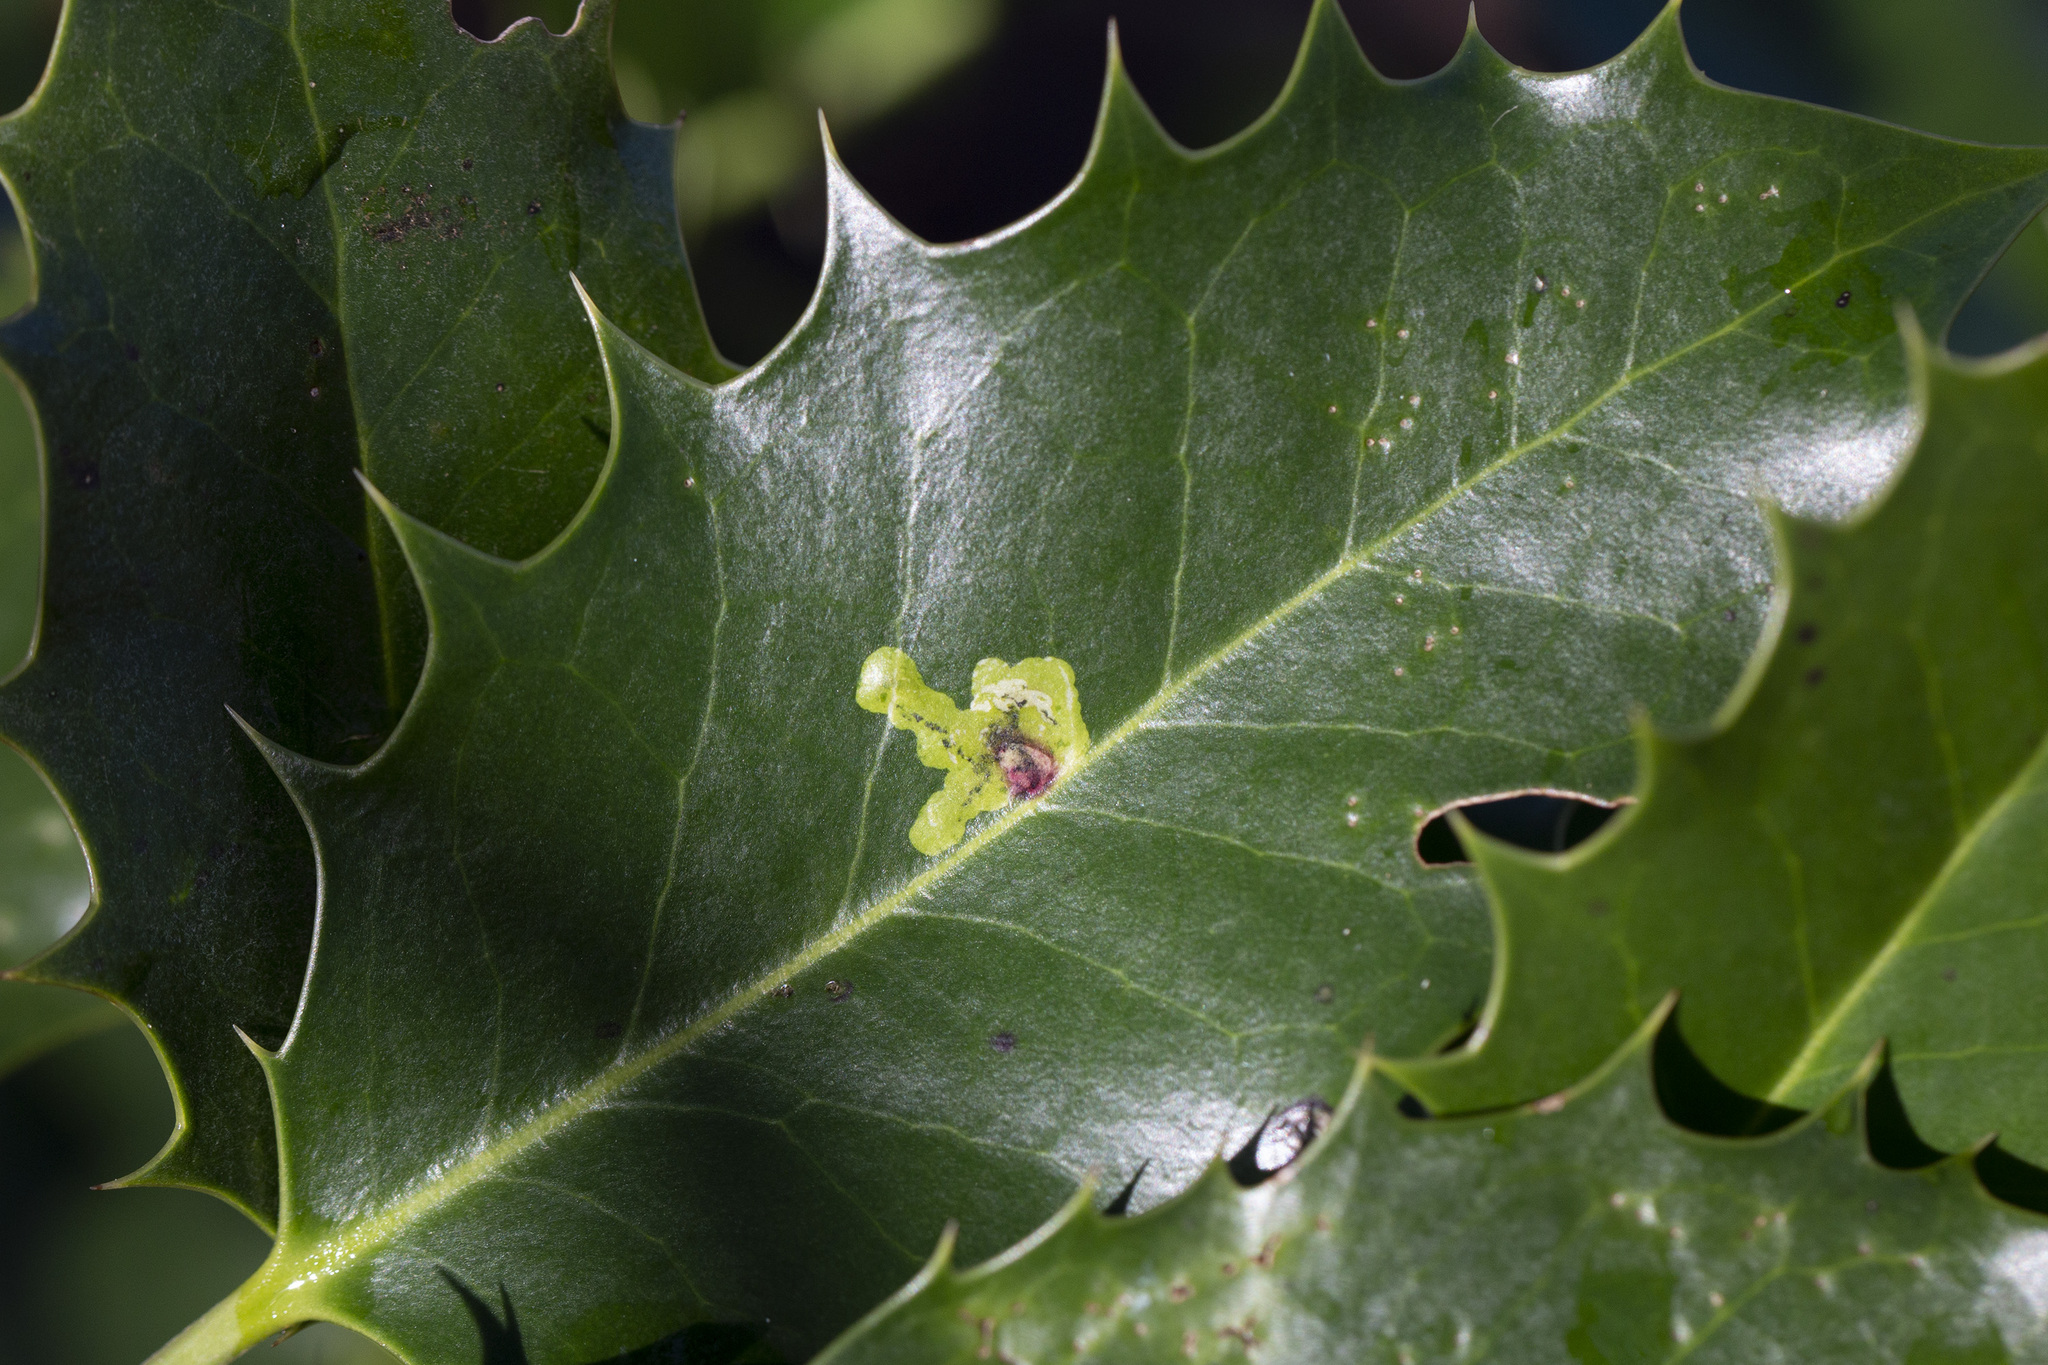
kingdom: Animalia
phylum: Arthropoda
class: Insecta
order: Diptera
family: Agromyzidae
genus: Phytomyza
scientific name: Phytomyza ilicis
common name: Holly leafminer
